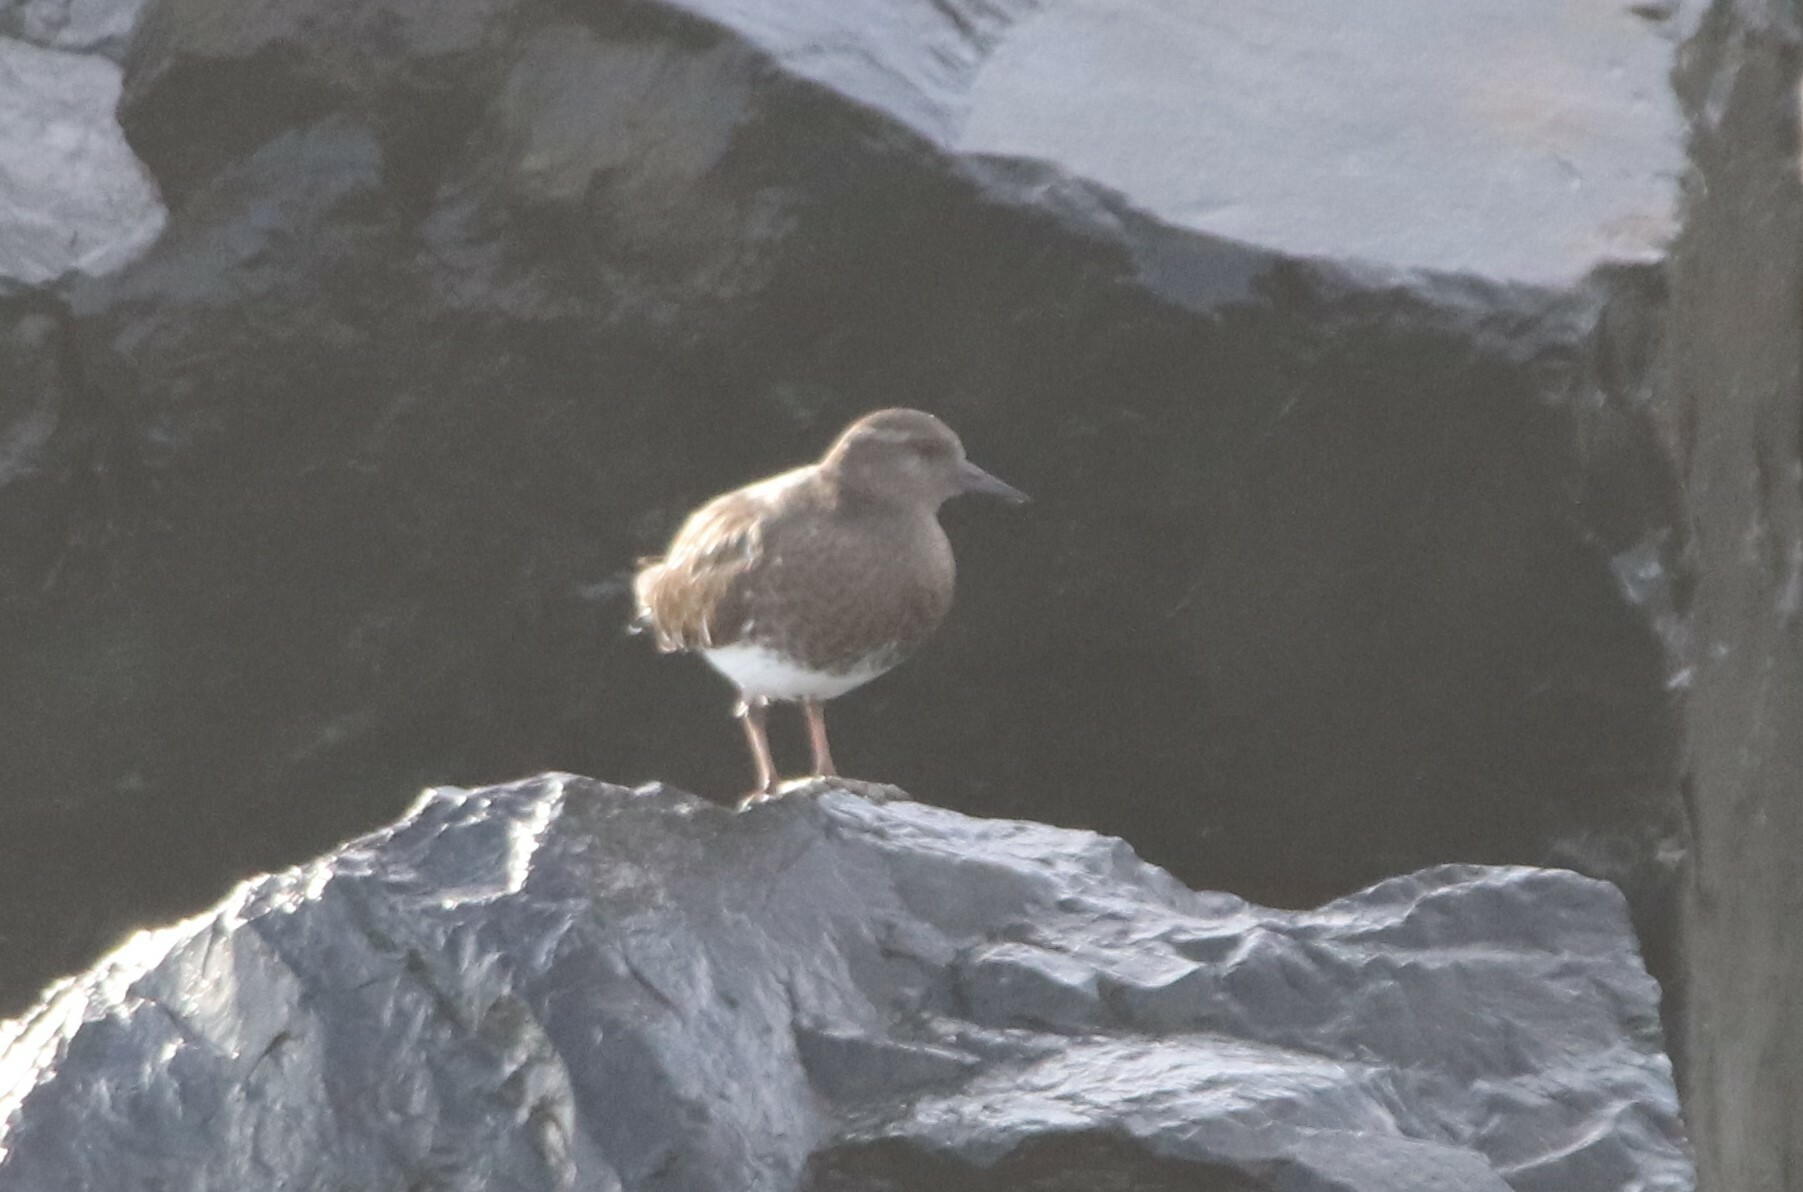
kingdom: Animalia
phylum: Chordata
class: Aves
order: Charadriiformes
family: Scolopacidae
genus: Arenaria
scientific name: Arenaria melanocephala
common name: Black turnstone
